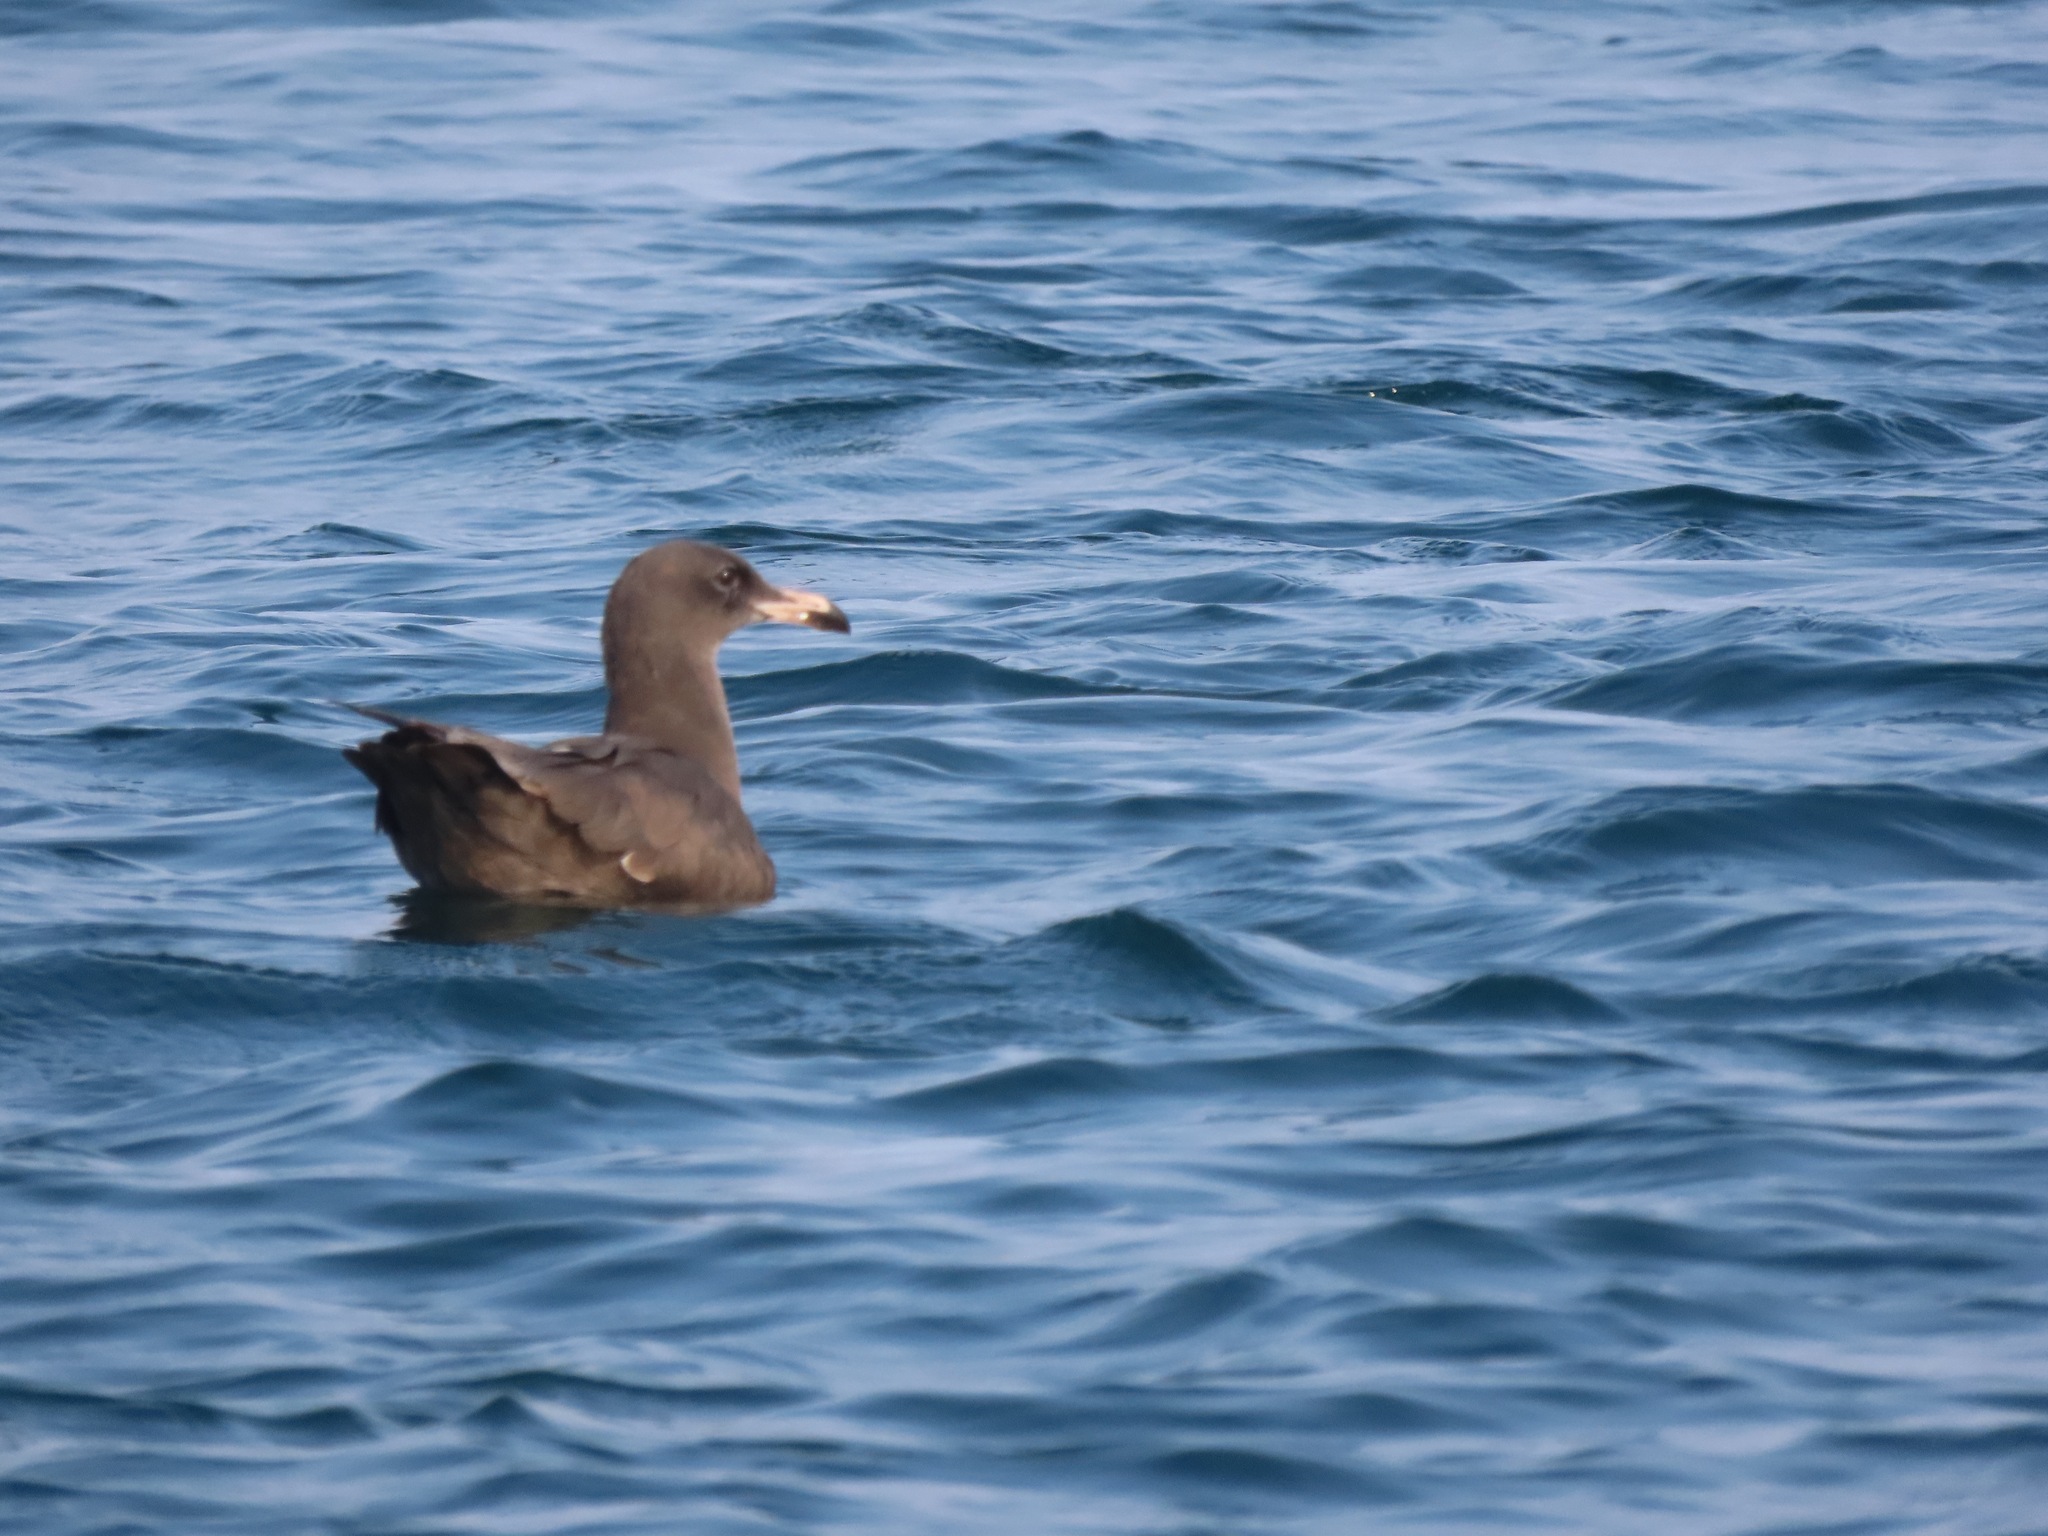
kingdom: Animalia
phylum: Chordata
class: Aves
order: Charadriiformes
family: Laridae
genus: Larus
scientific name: Larus heermanni
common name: Heermann's gull
